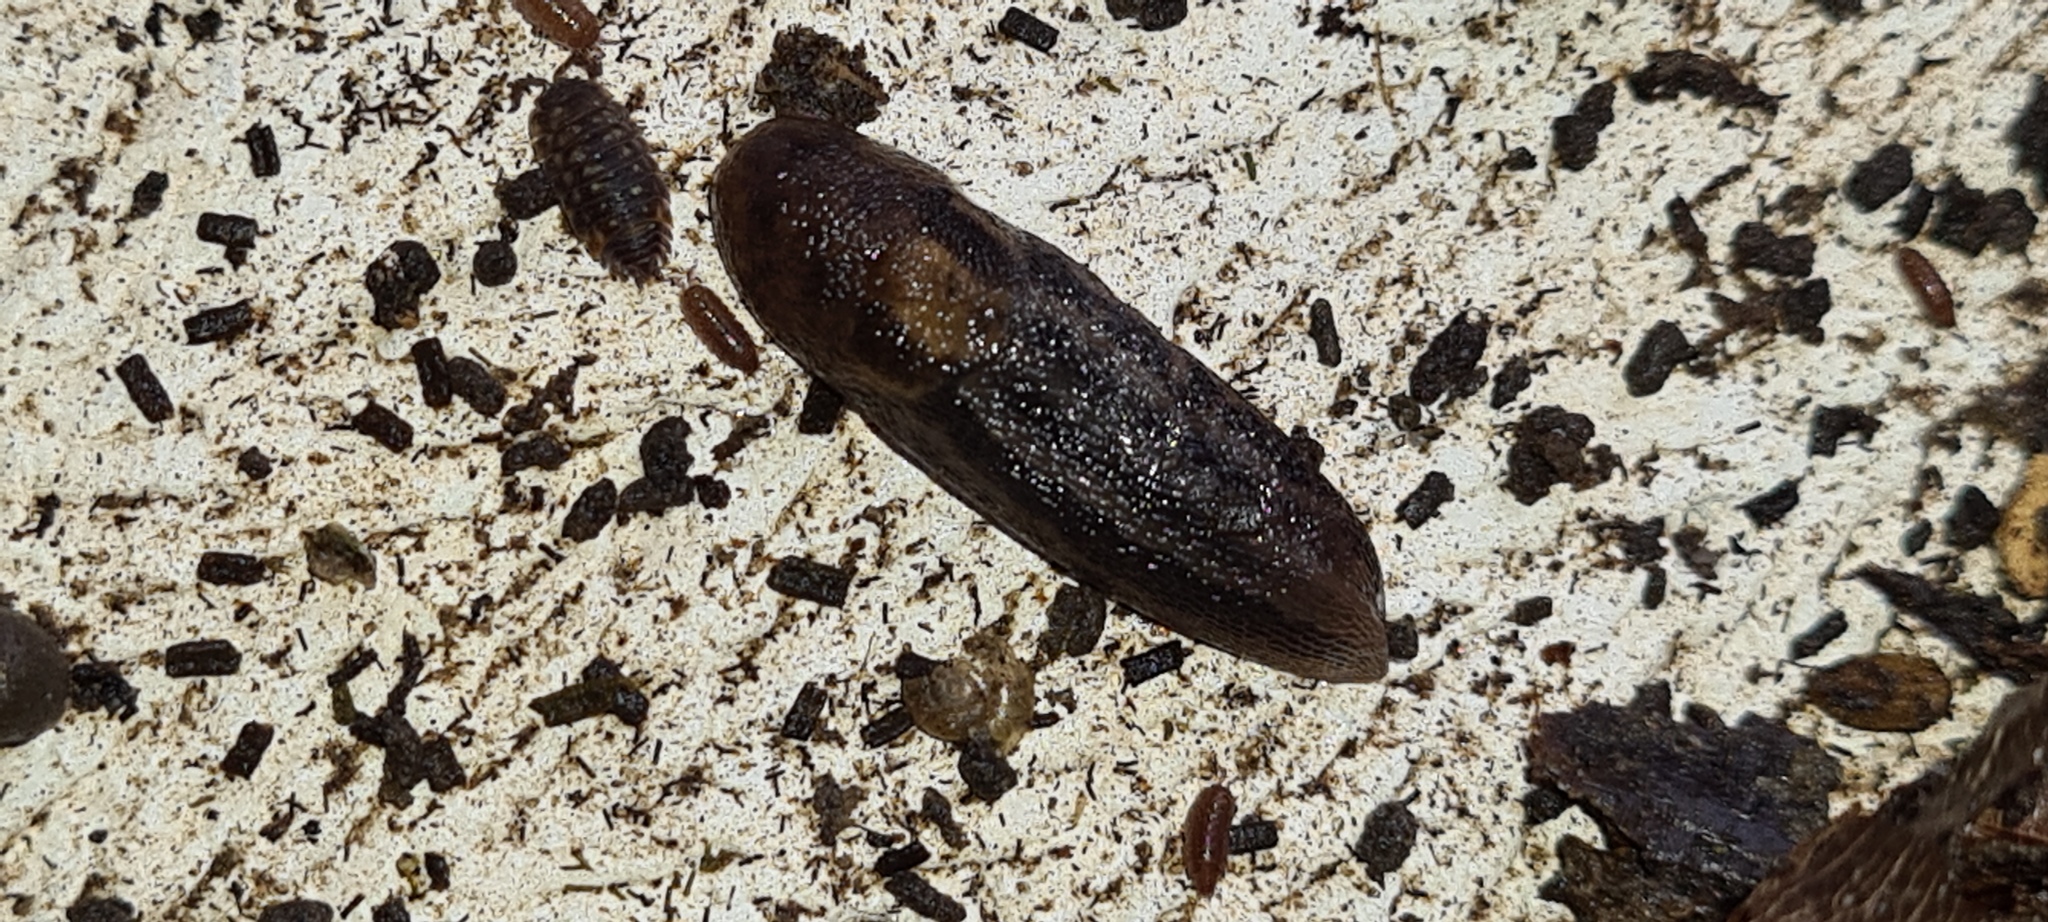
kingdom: Animalia
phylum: Mollusca
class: Gastropoda
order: Stylommatophora
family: Limacidae
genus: Limax
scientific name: Limax maximus
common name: Great grey slug
